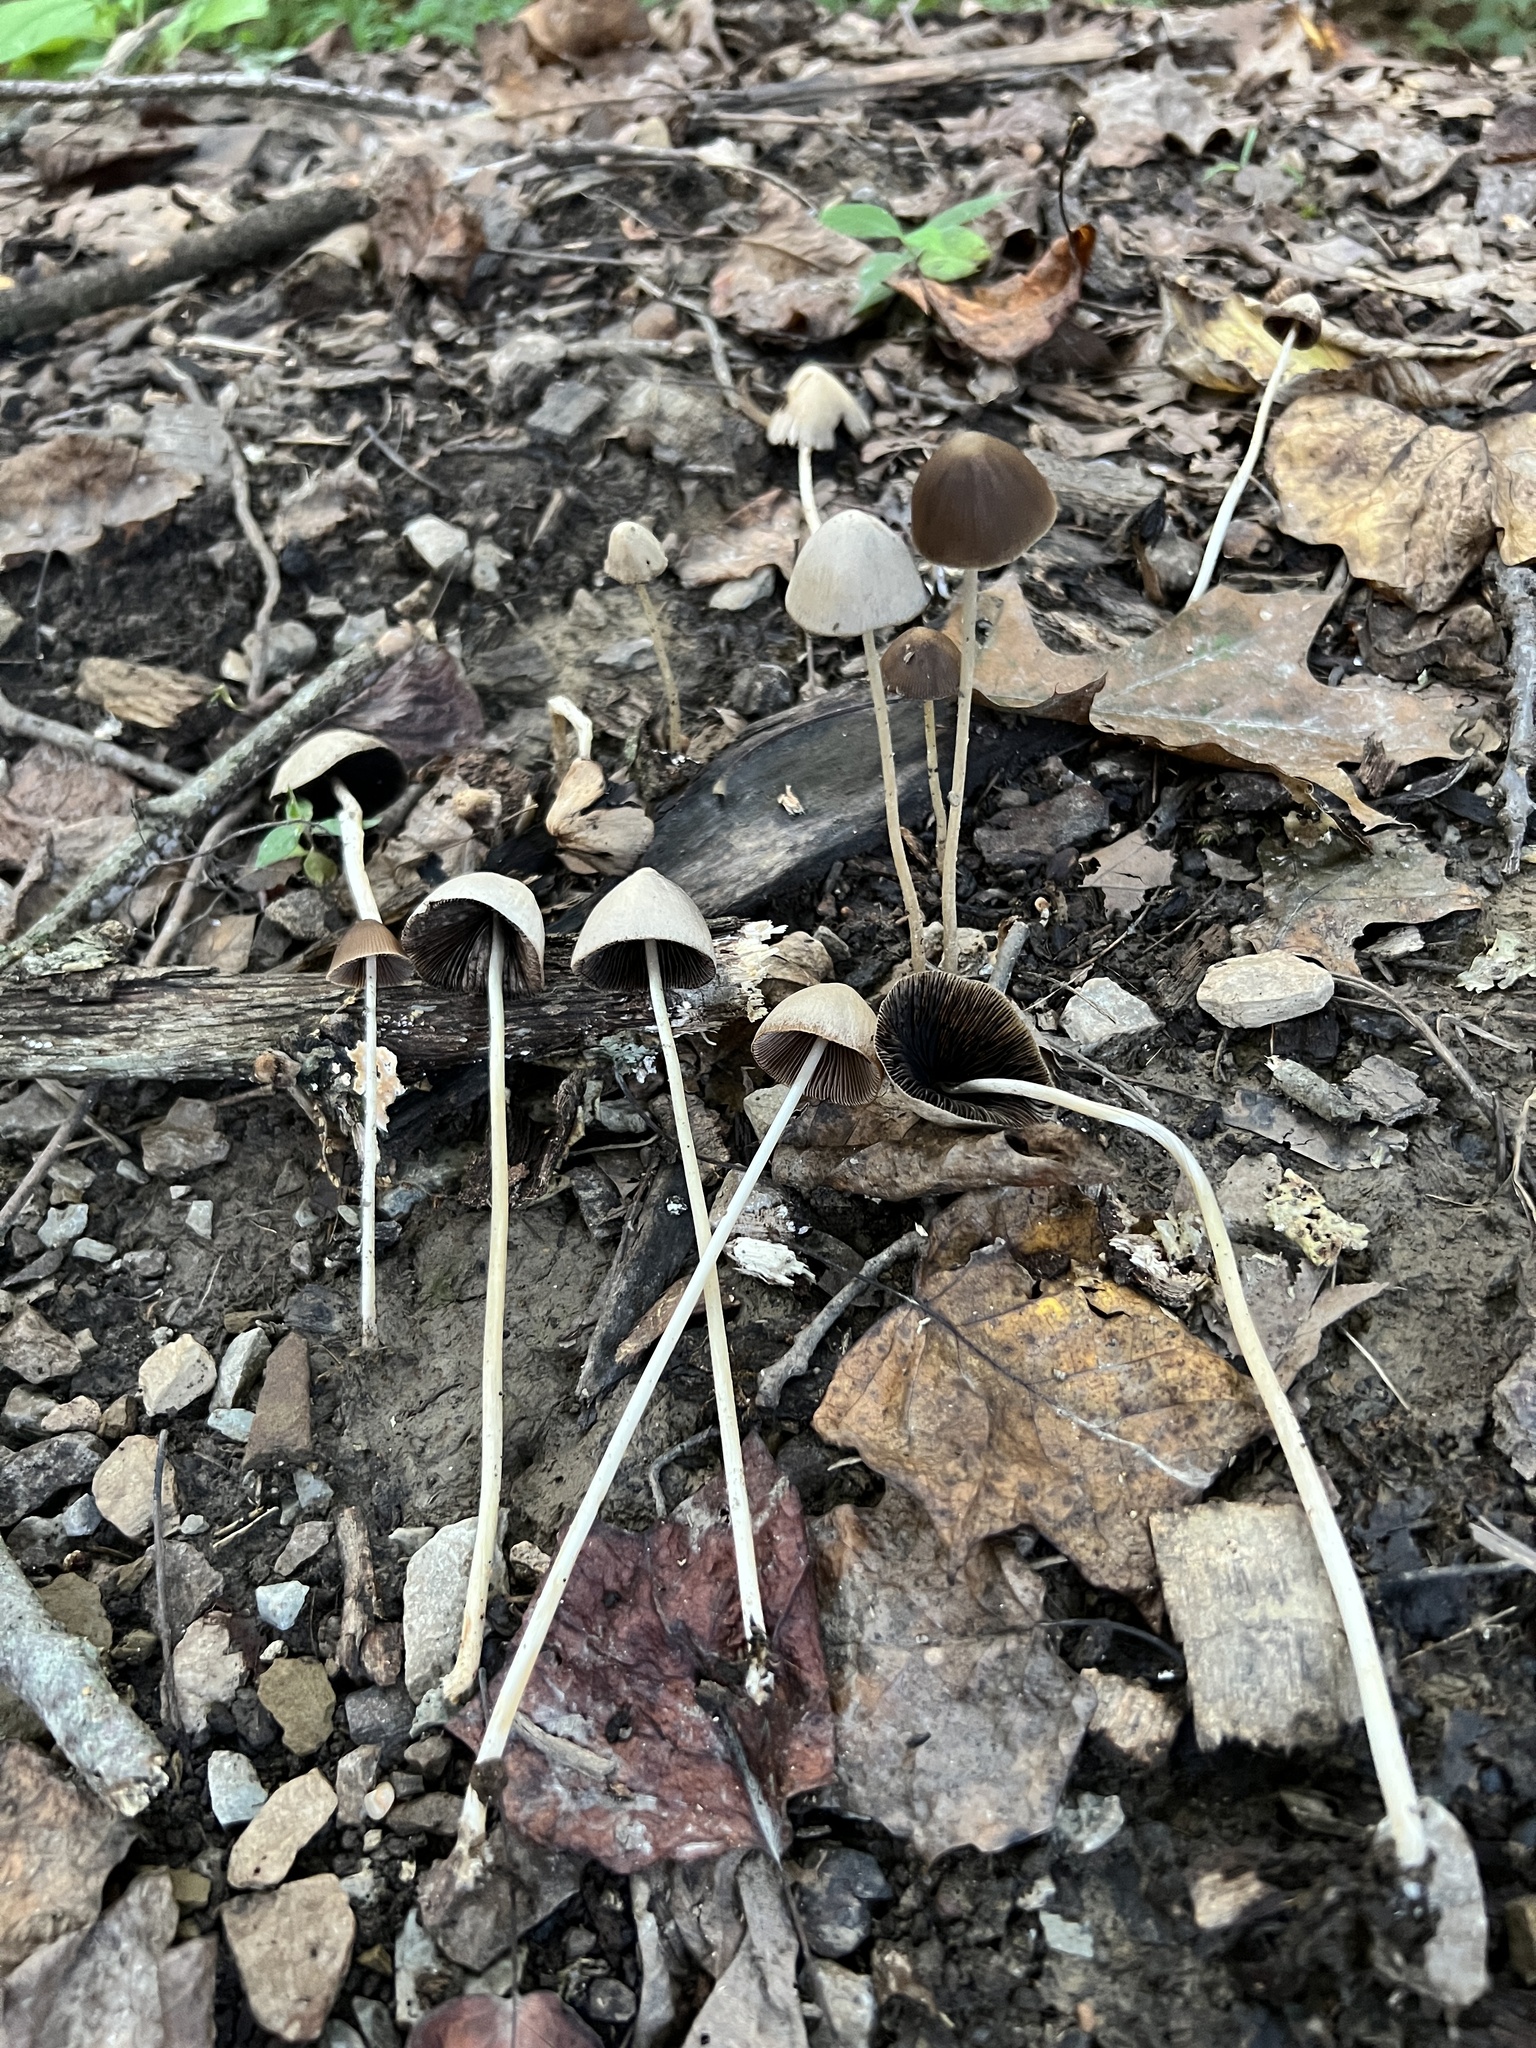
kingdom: Fungi
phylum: Basidiomycota
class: Agaricomycetes
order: Agaricales
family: Psathyrellaceae
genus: Parasola
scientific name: Parasola conopilea
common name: Conical brittlestem
